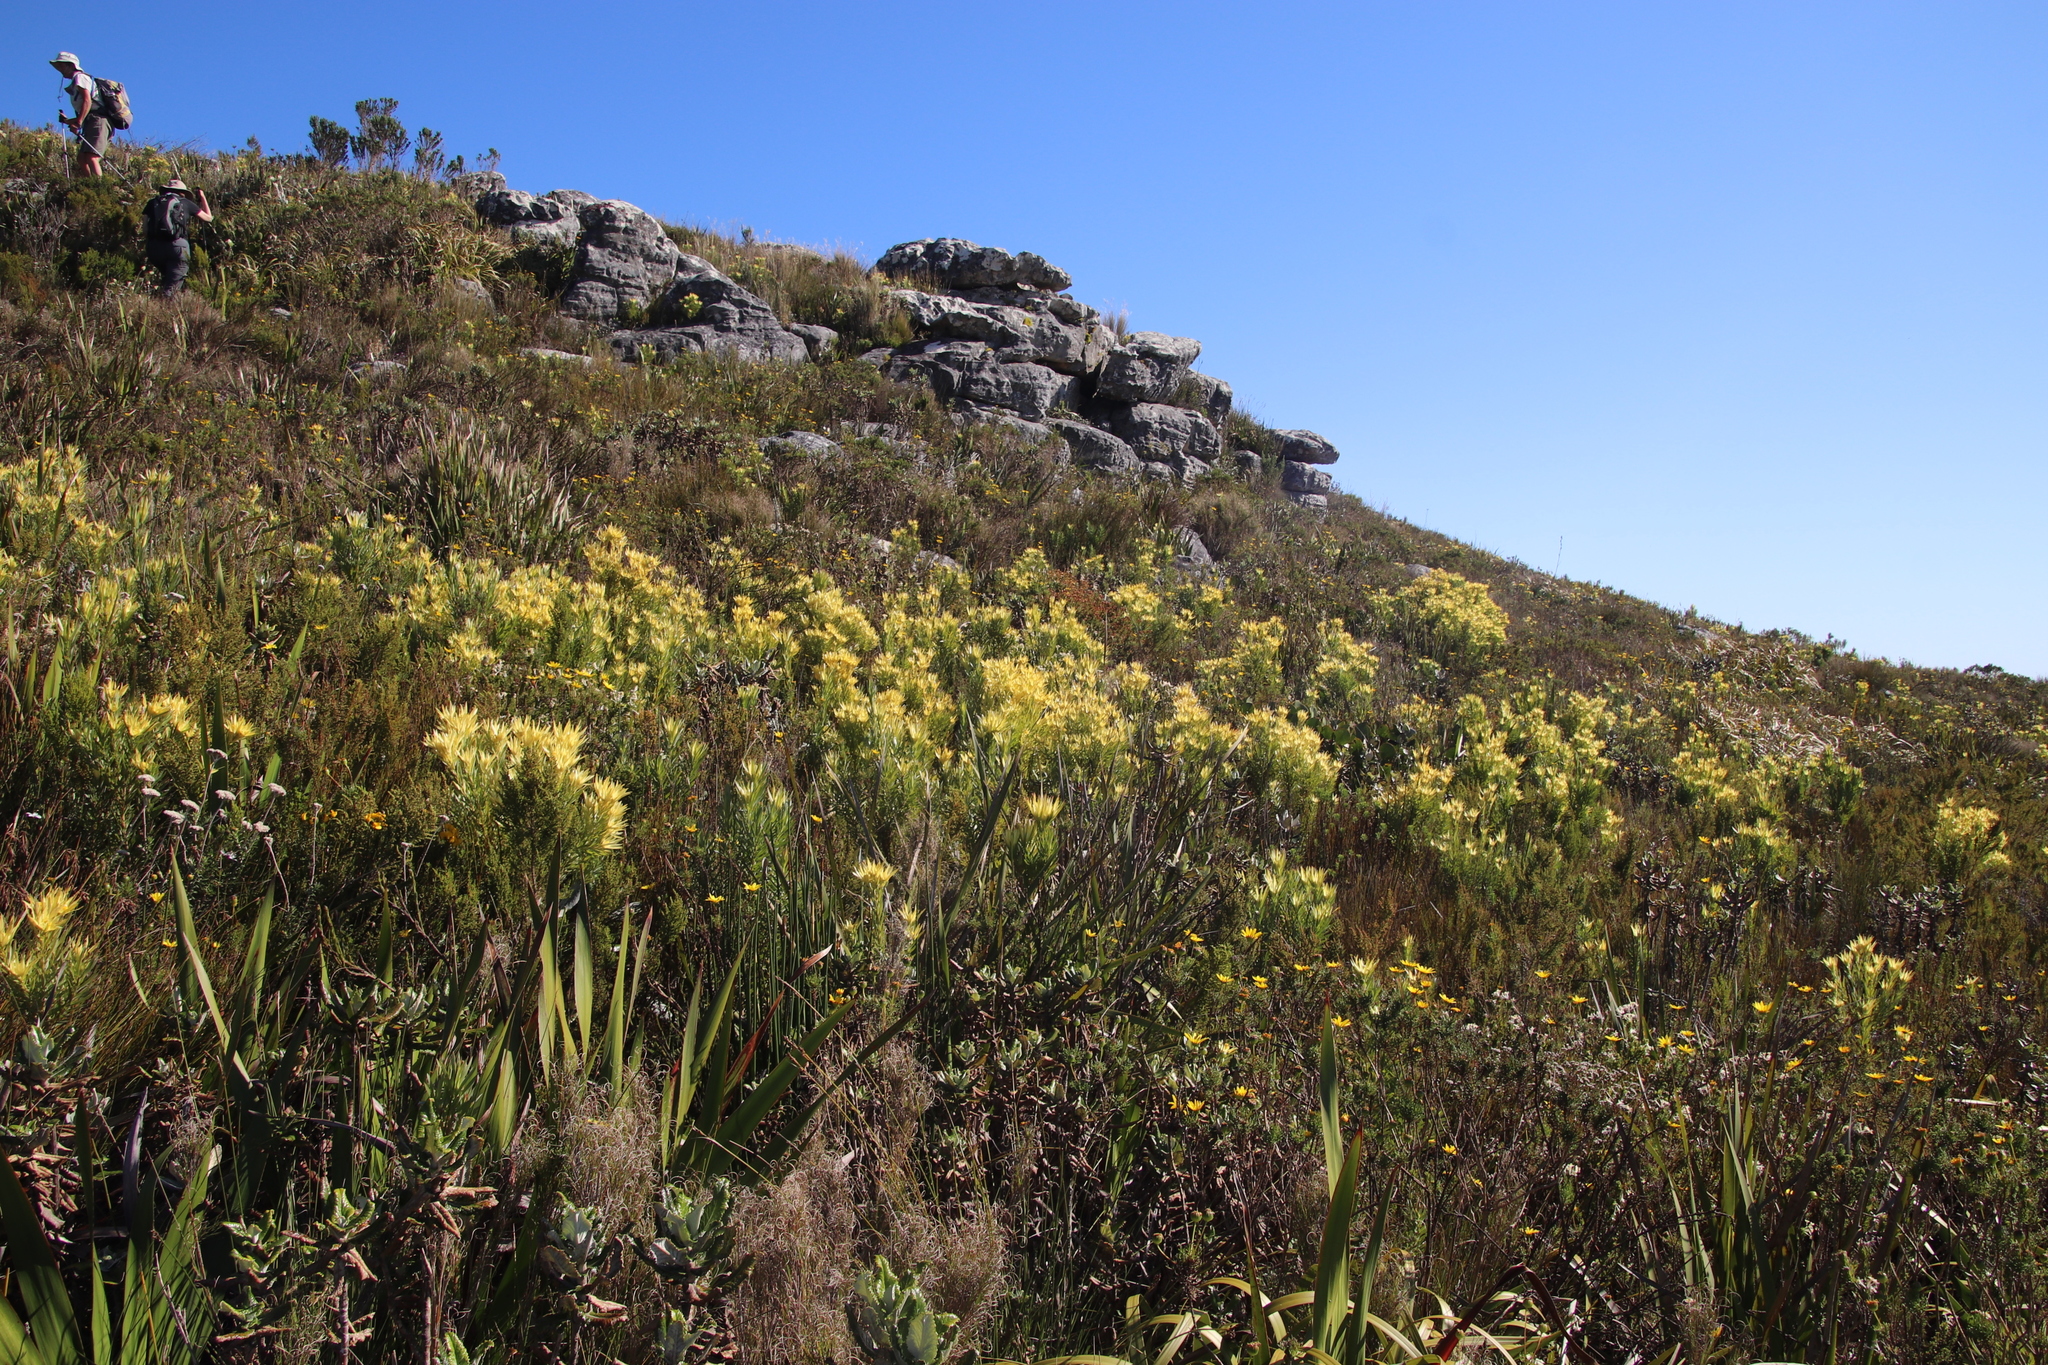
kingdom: Plantae
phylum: Tracheophyta
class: Magnoliopsida
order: Proteales
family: Proteaceae
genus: Leucadendron
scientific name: Leucadendron xanthoconus
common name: Sickle-leaf conebush
